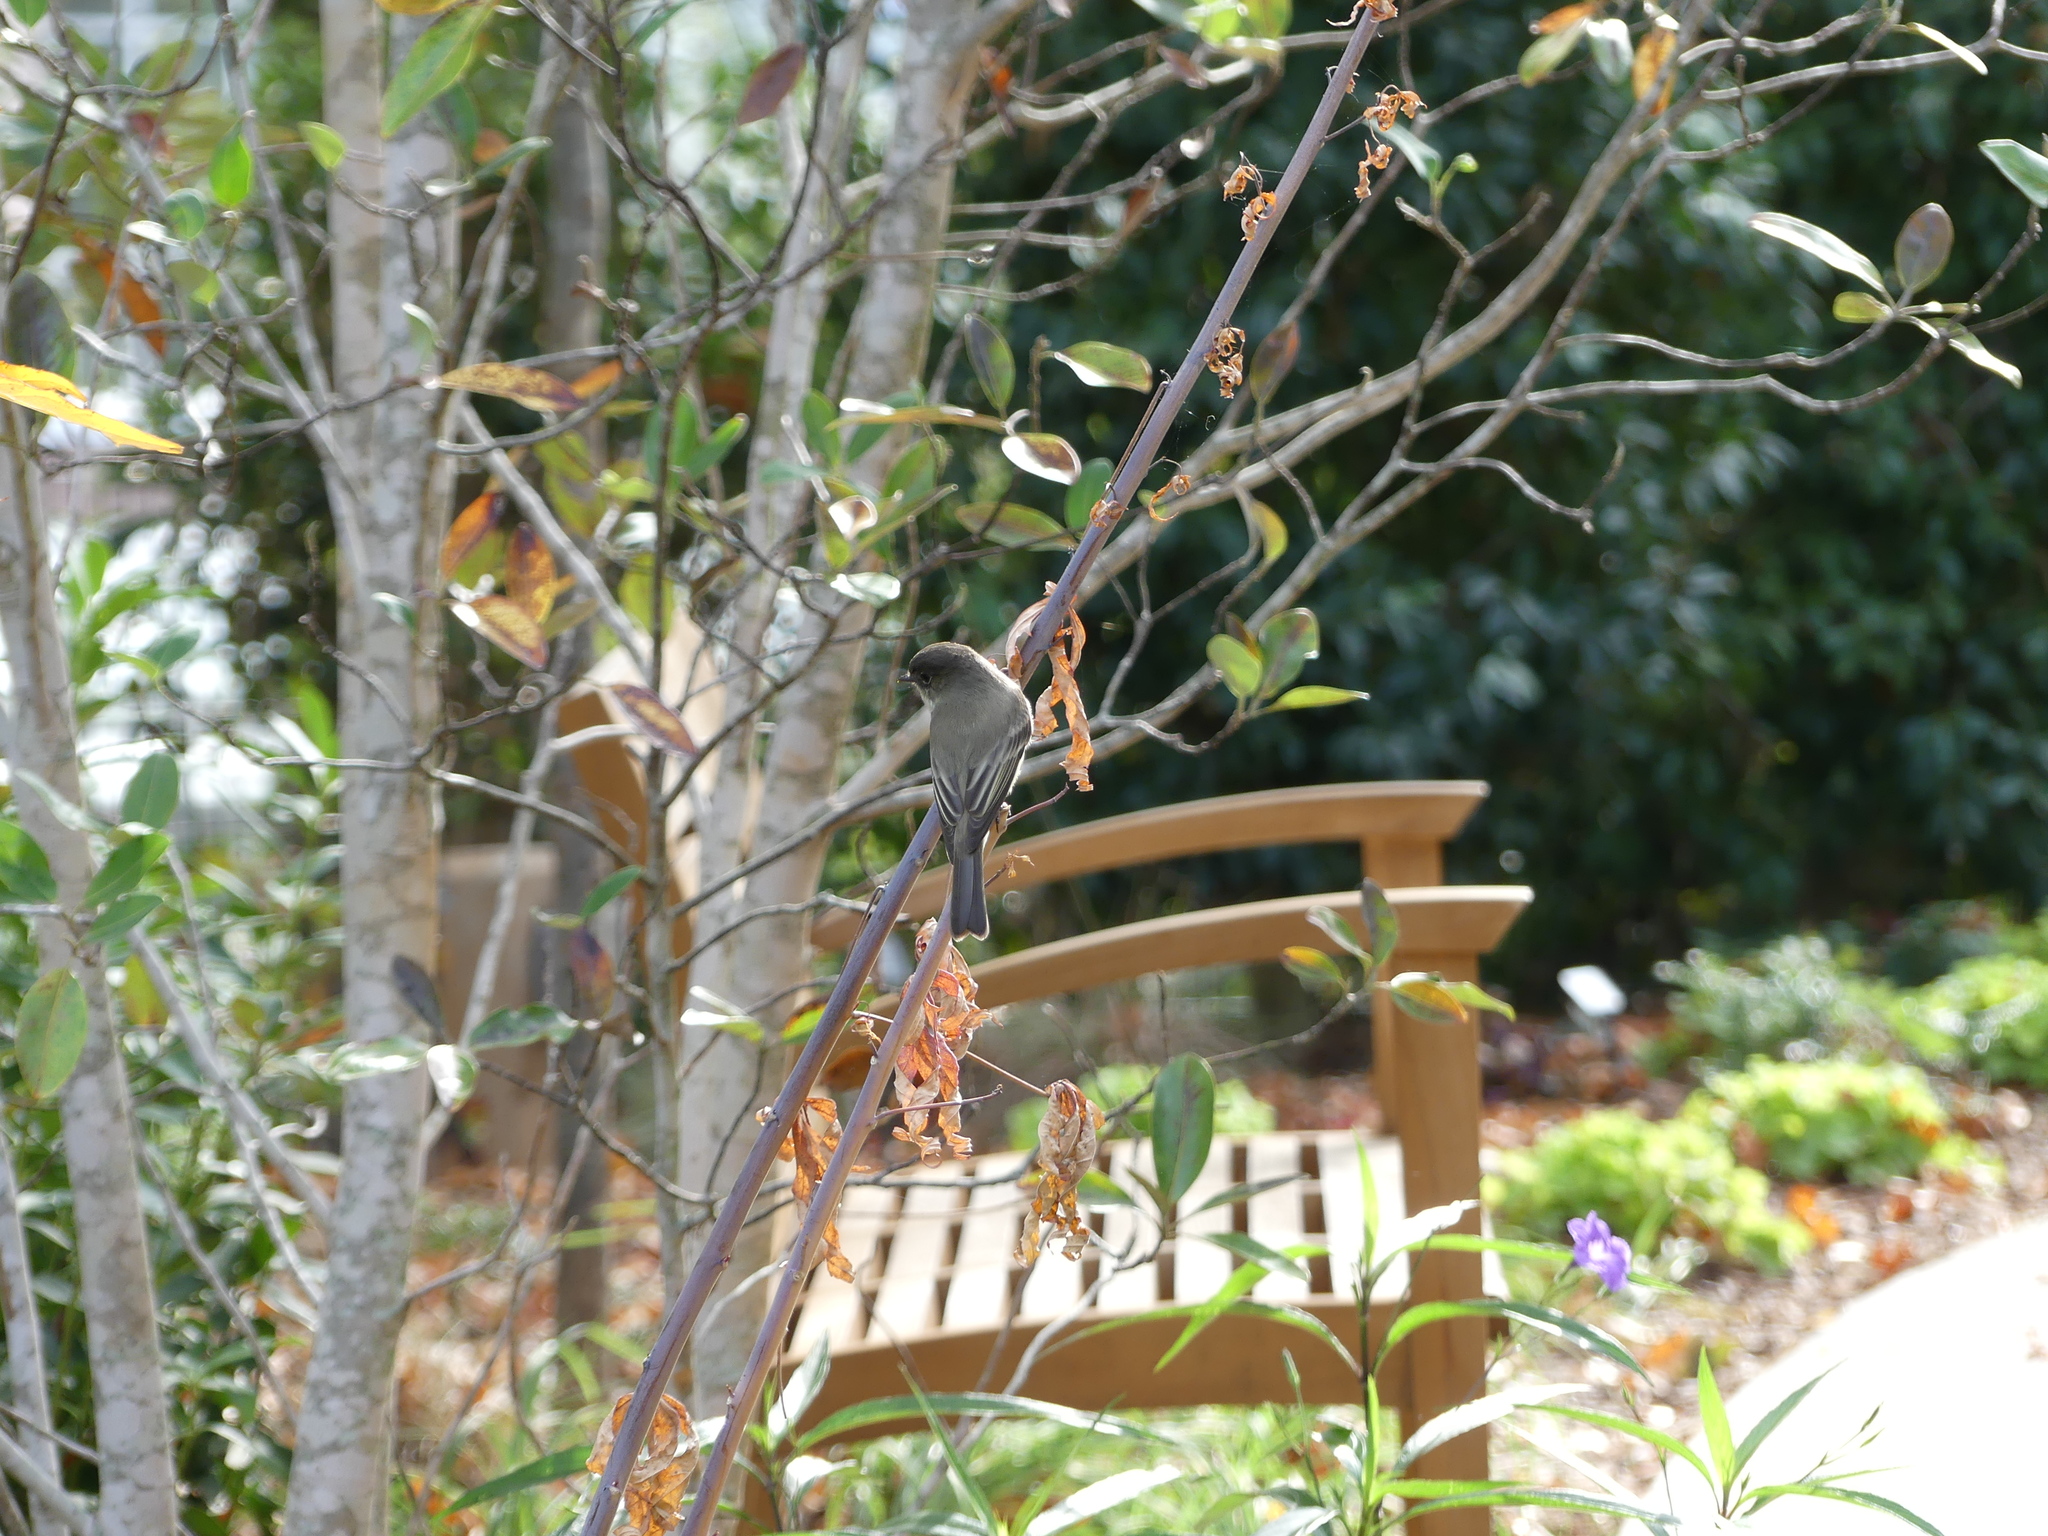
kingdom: Animalia
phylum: Chordata
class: Aves
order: Passeriformes
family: Tyrannidae
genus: Sayornis
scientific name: Sayornis phoebe
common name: Eastern phoebe
